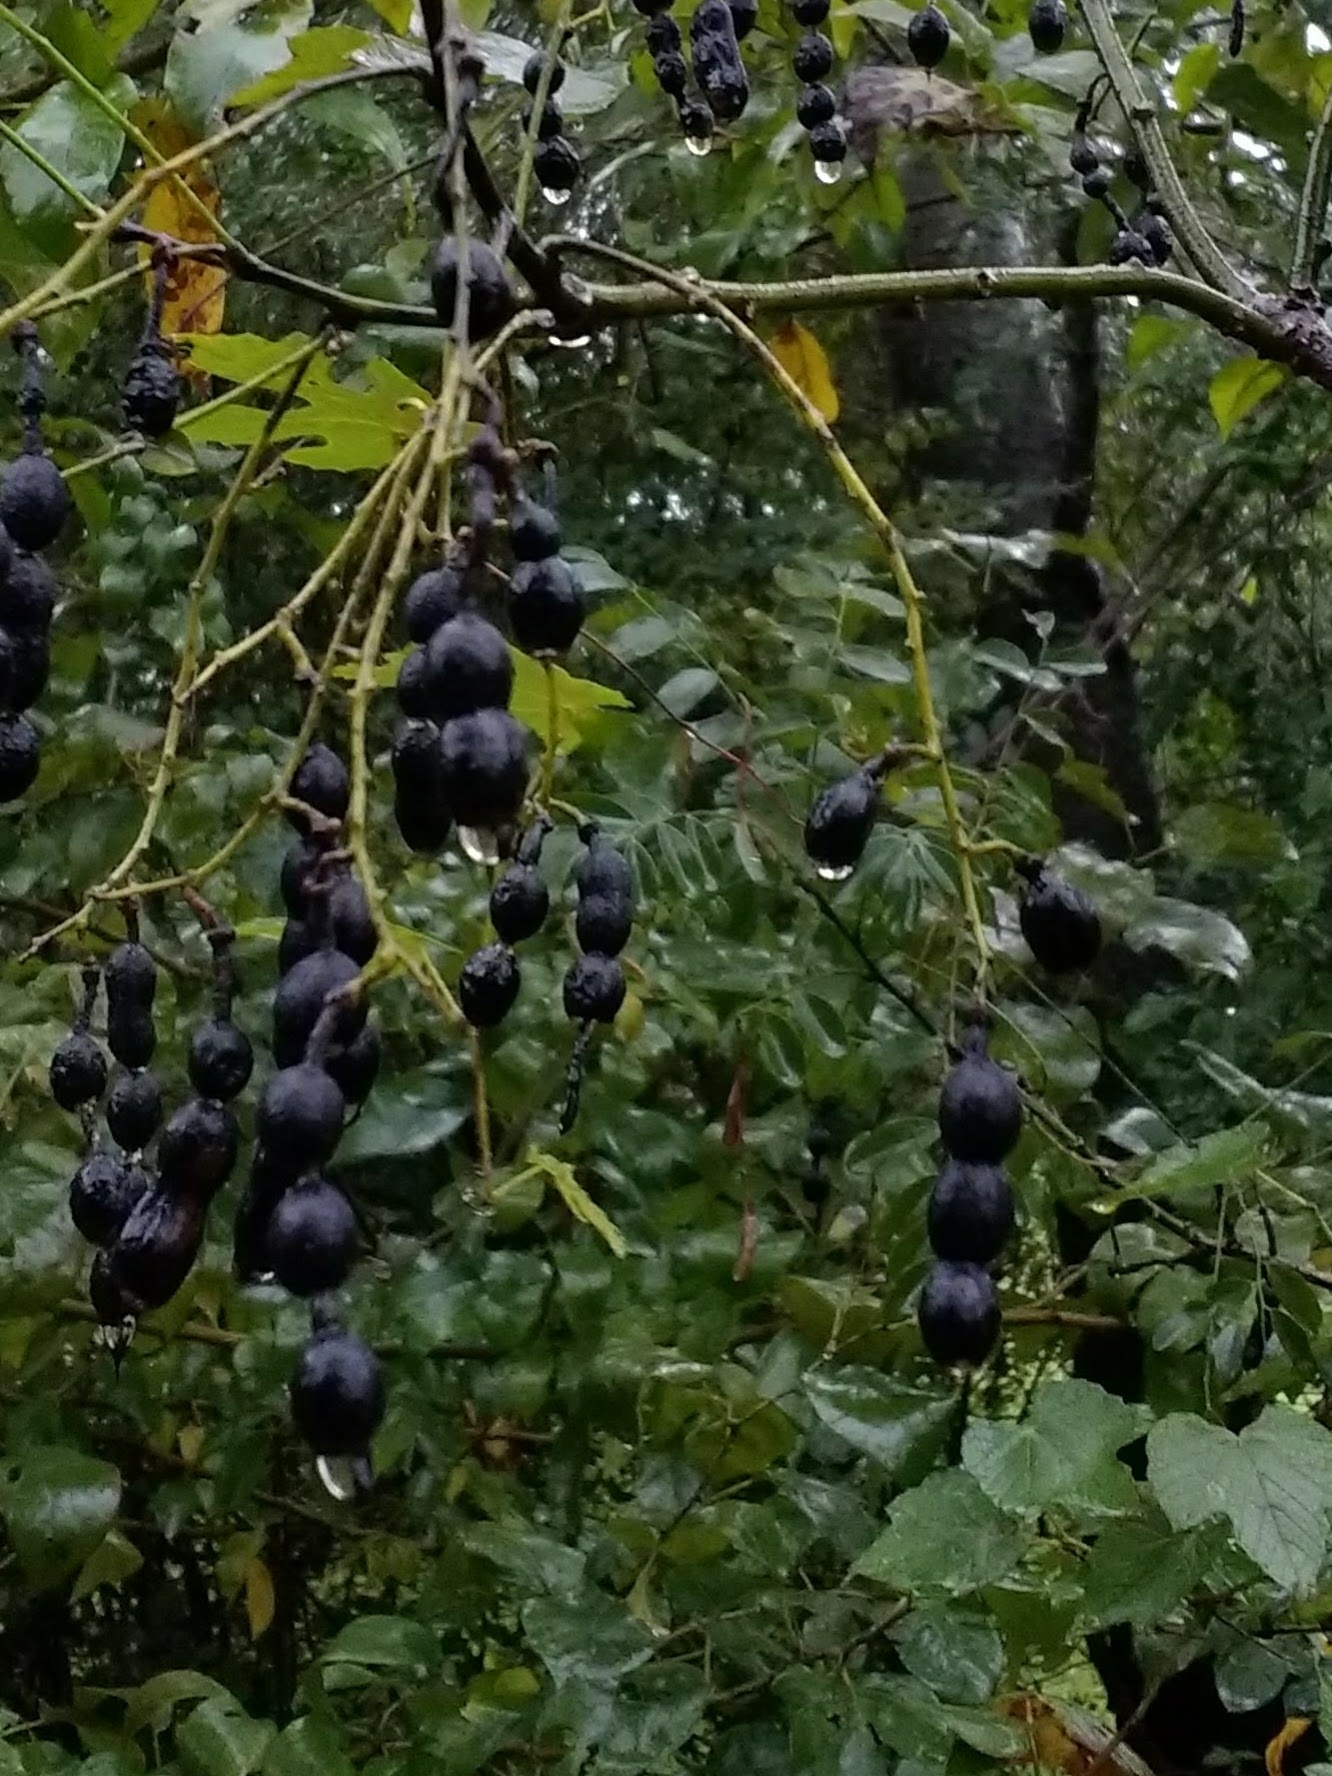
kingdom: Plantae
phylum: Tracheophyta
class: Magnoliopsida
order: Fabales
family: Fabaceae
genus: Styphnolobium
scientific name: Styphnolobium affine
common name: Texas sophora
